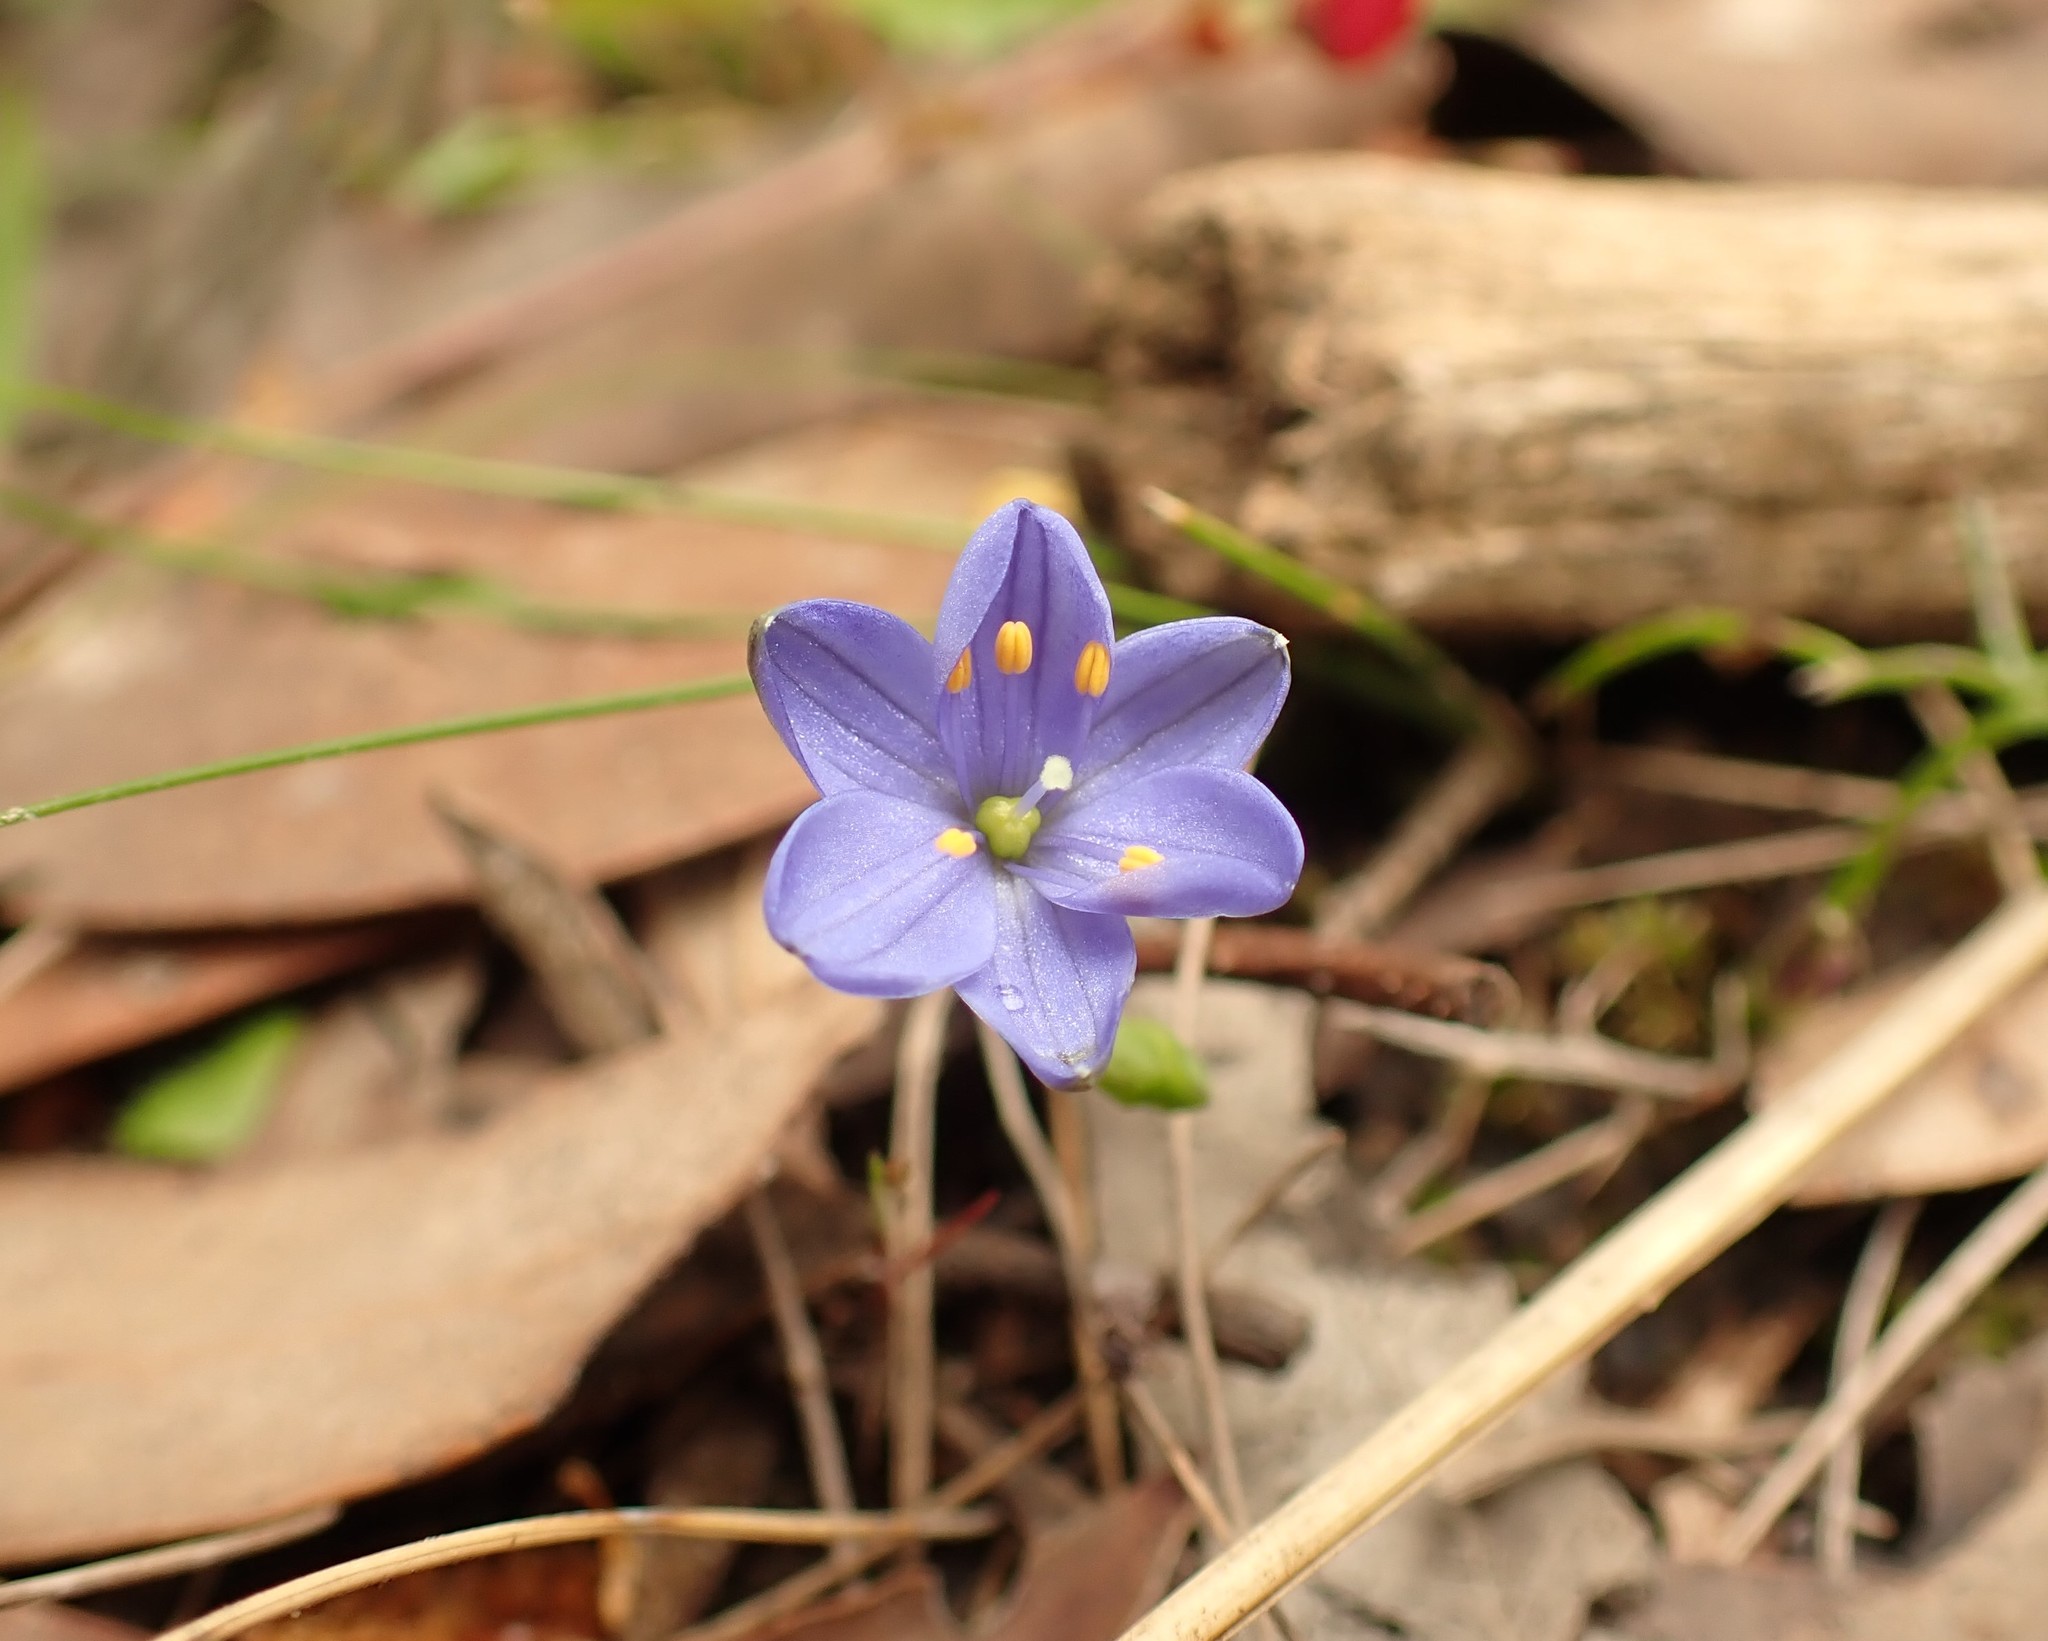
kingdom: Plantae
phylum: Tracheophyta
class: Liliopsida
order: Asparagales
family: Asphodelaceae
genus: Chamaescilla
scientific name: Chamaescilla corymbosa
